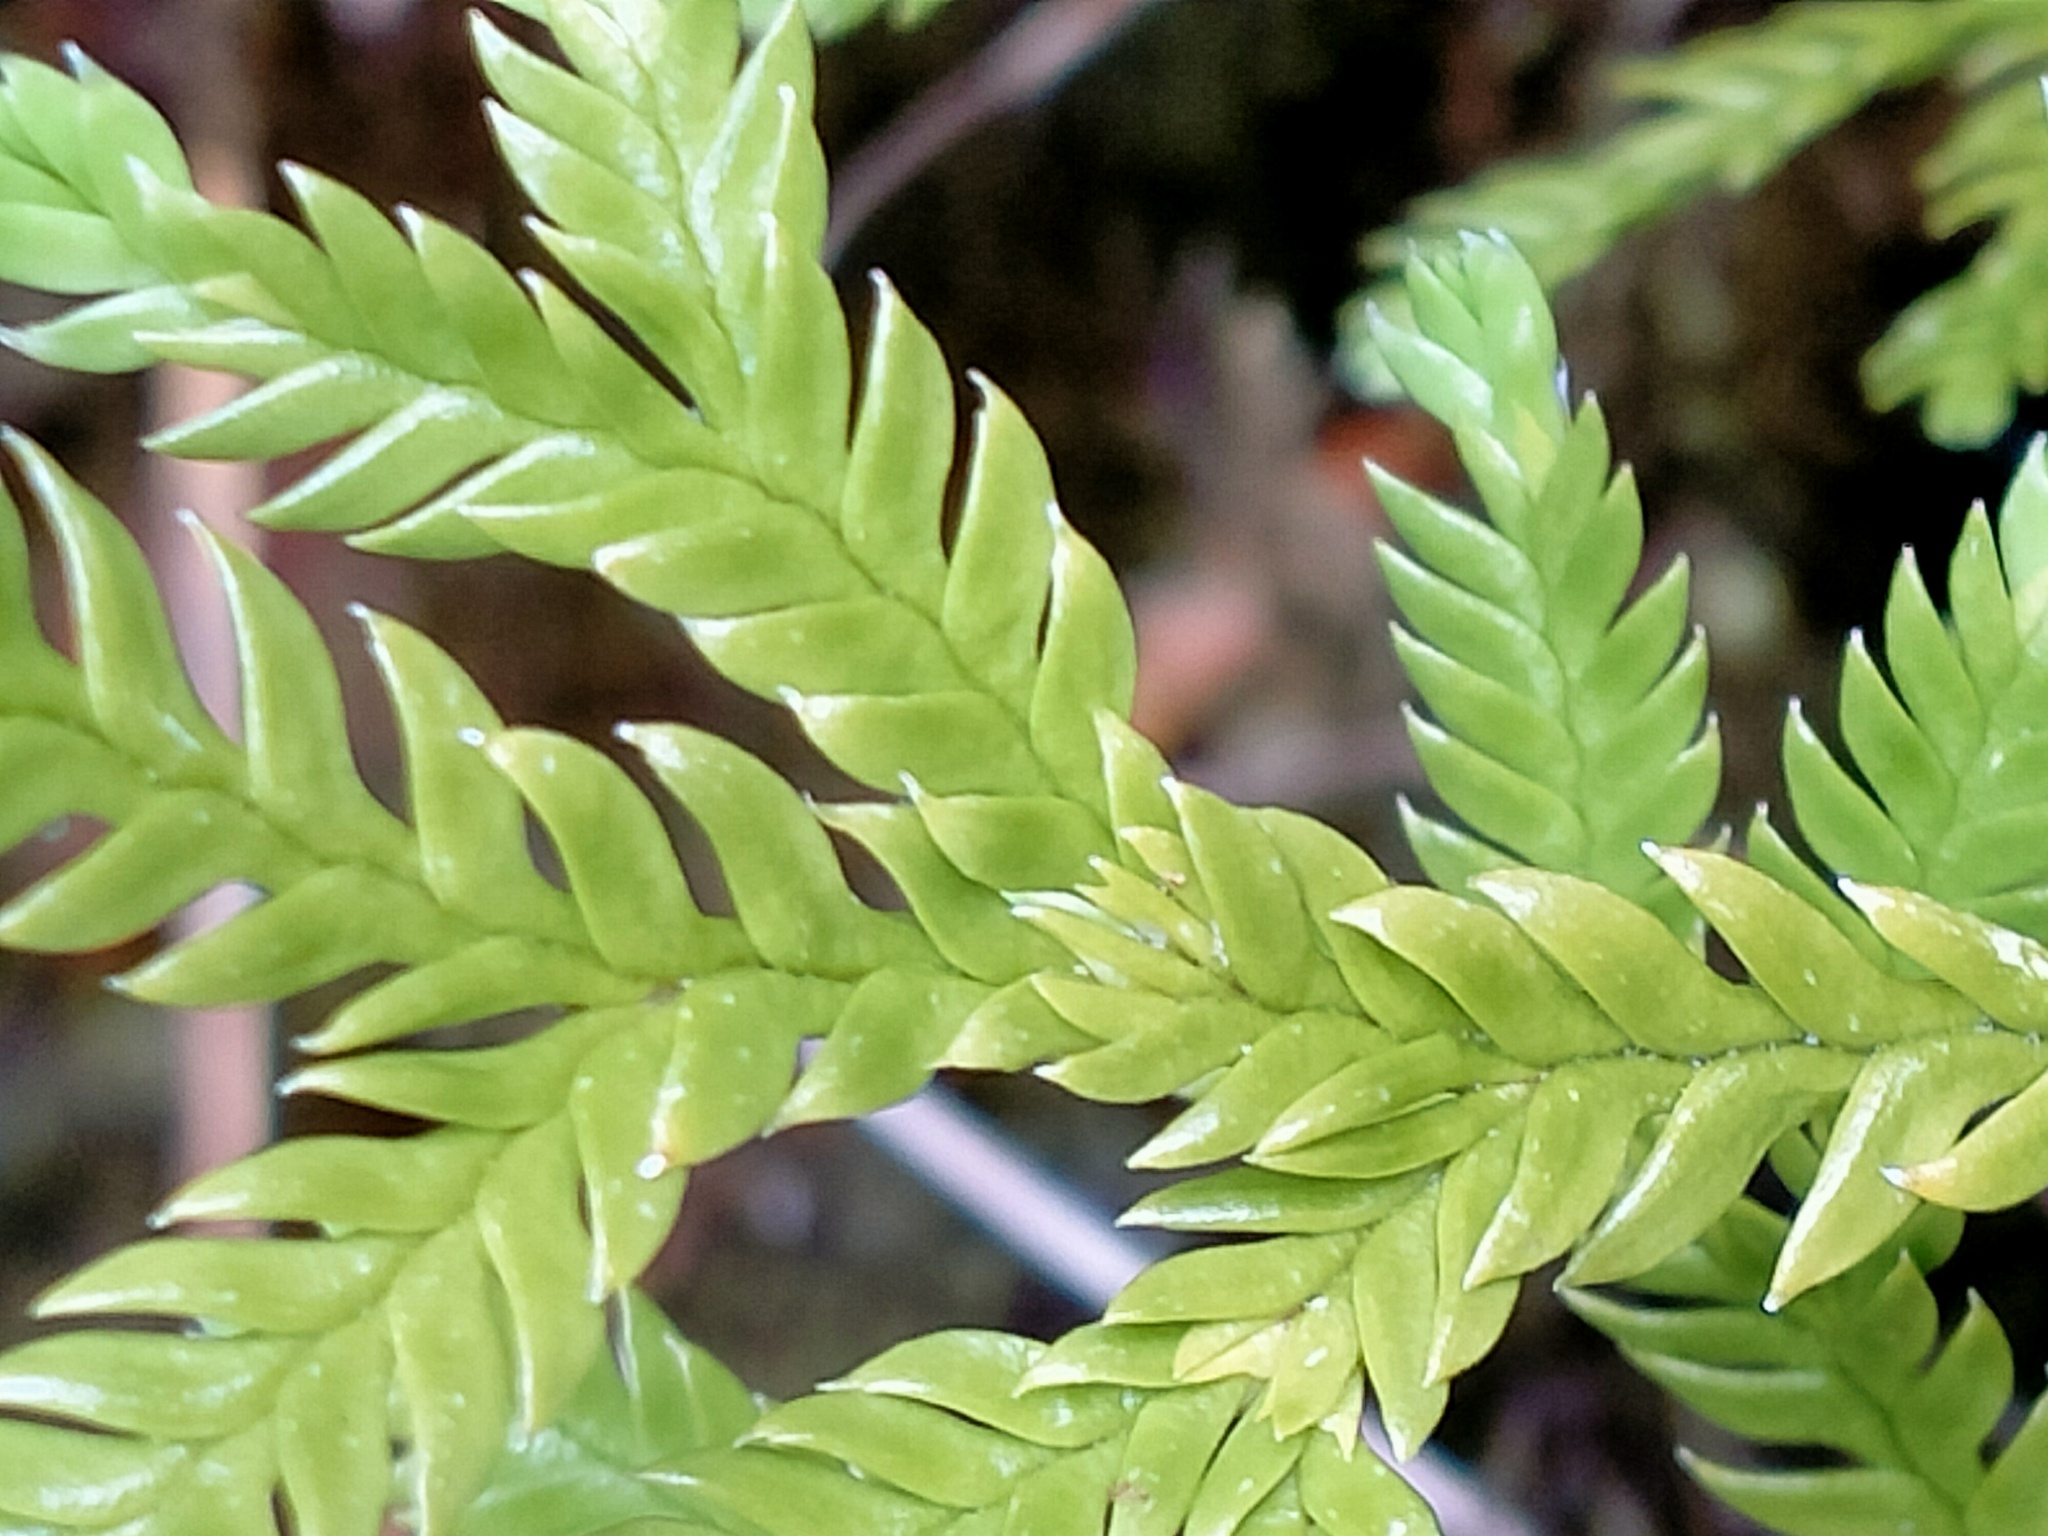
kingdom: Plantae
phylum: Tracheophyta
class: Lycopodiopsida
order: Lycopodiales
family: Lycopodiaceae
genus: Diphasium
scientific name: Diphasium scariosum
